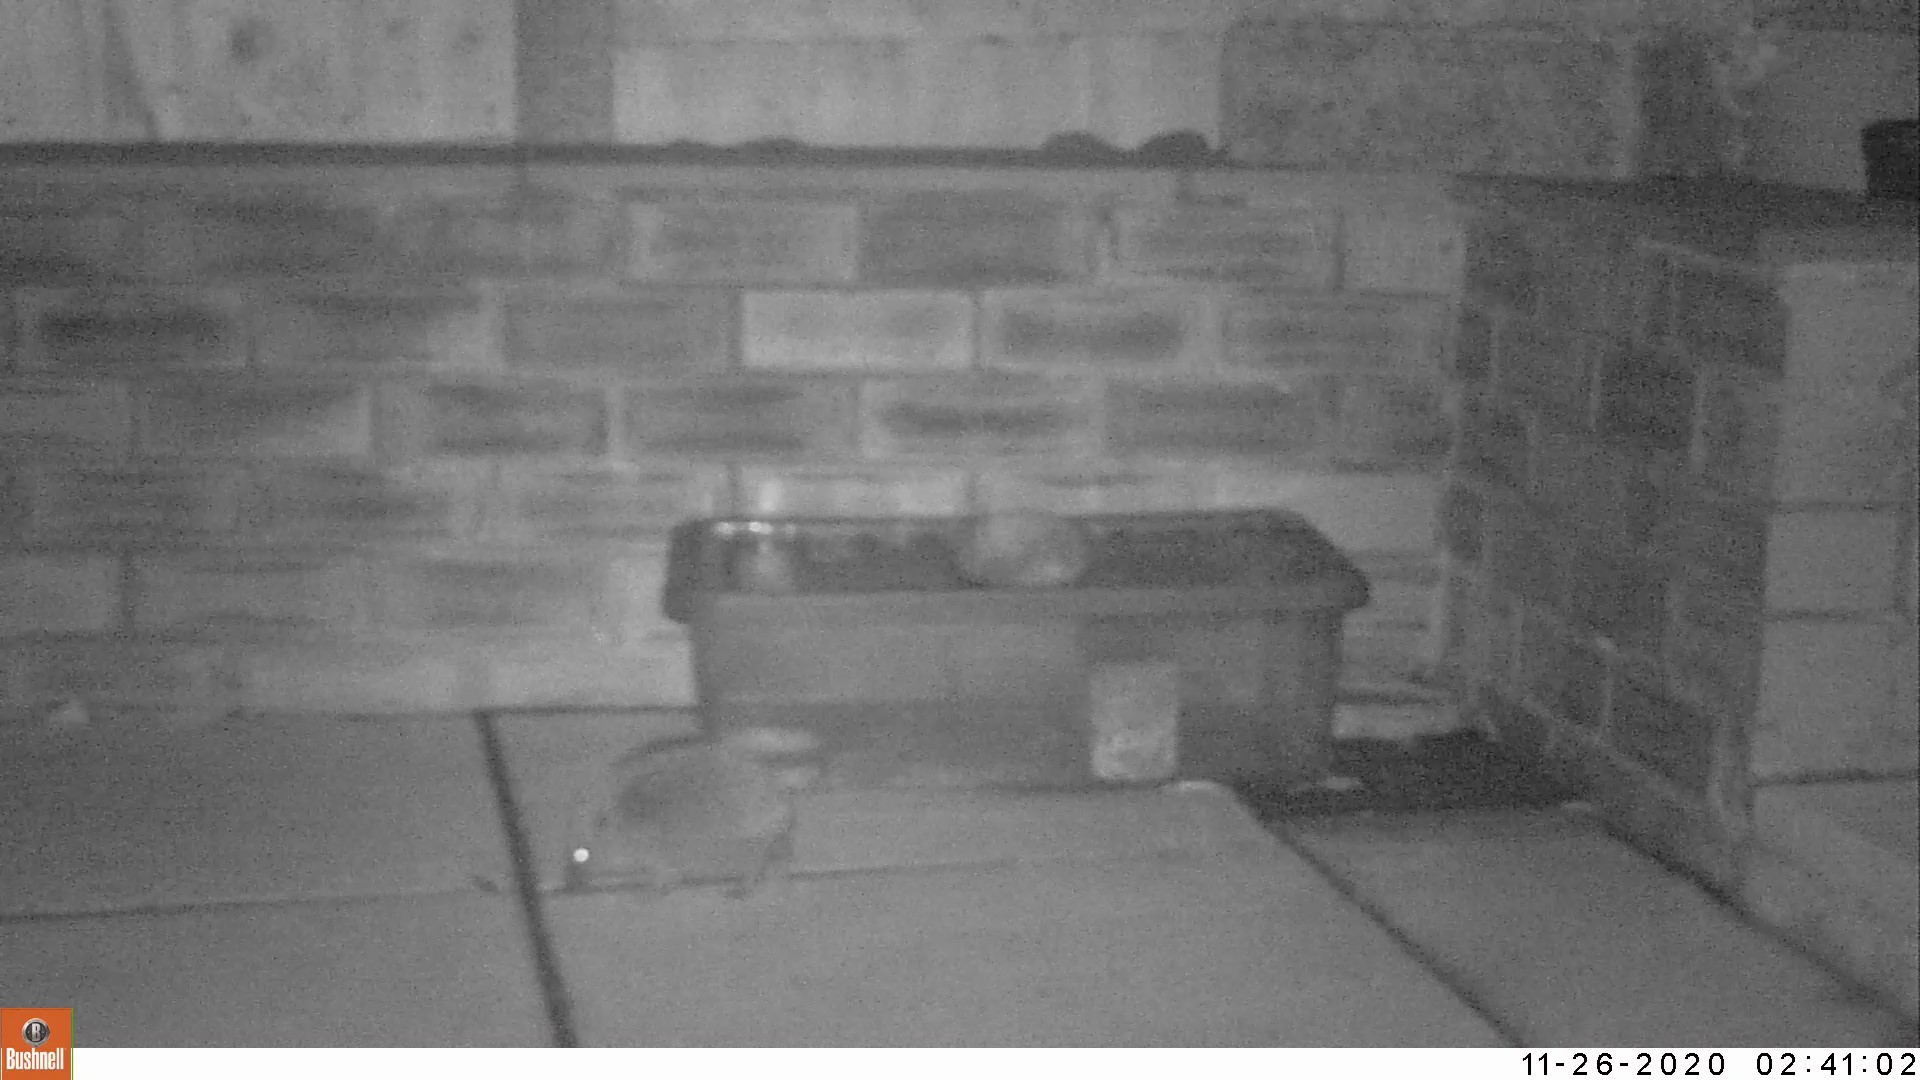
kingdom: Animalia
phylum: Chordata
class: Mammalia
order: Erinaceomorpha
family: Erinaceidae
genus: Erinaceus
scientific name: Erinaceus europaeus
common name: West european hedgehog
